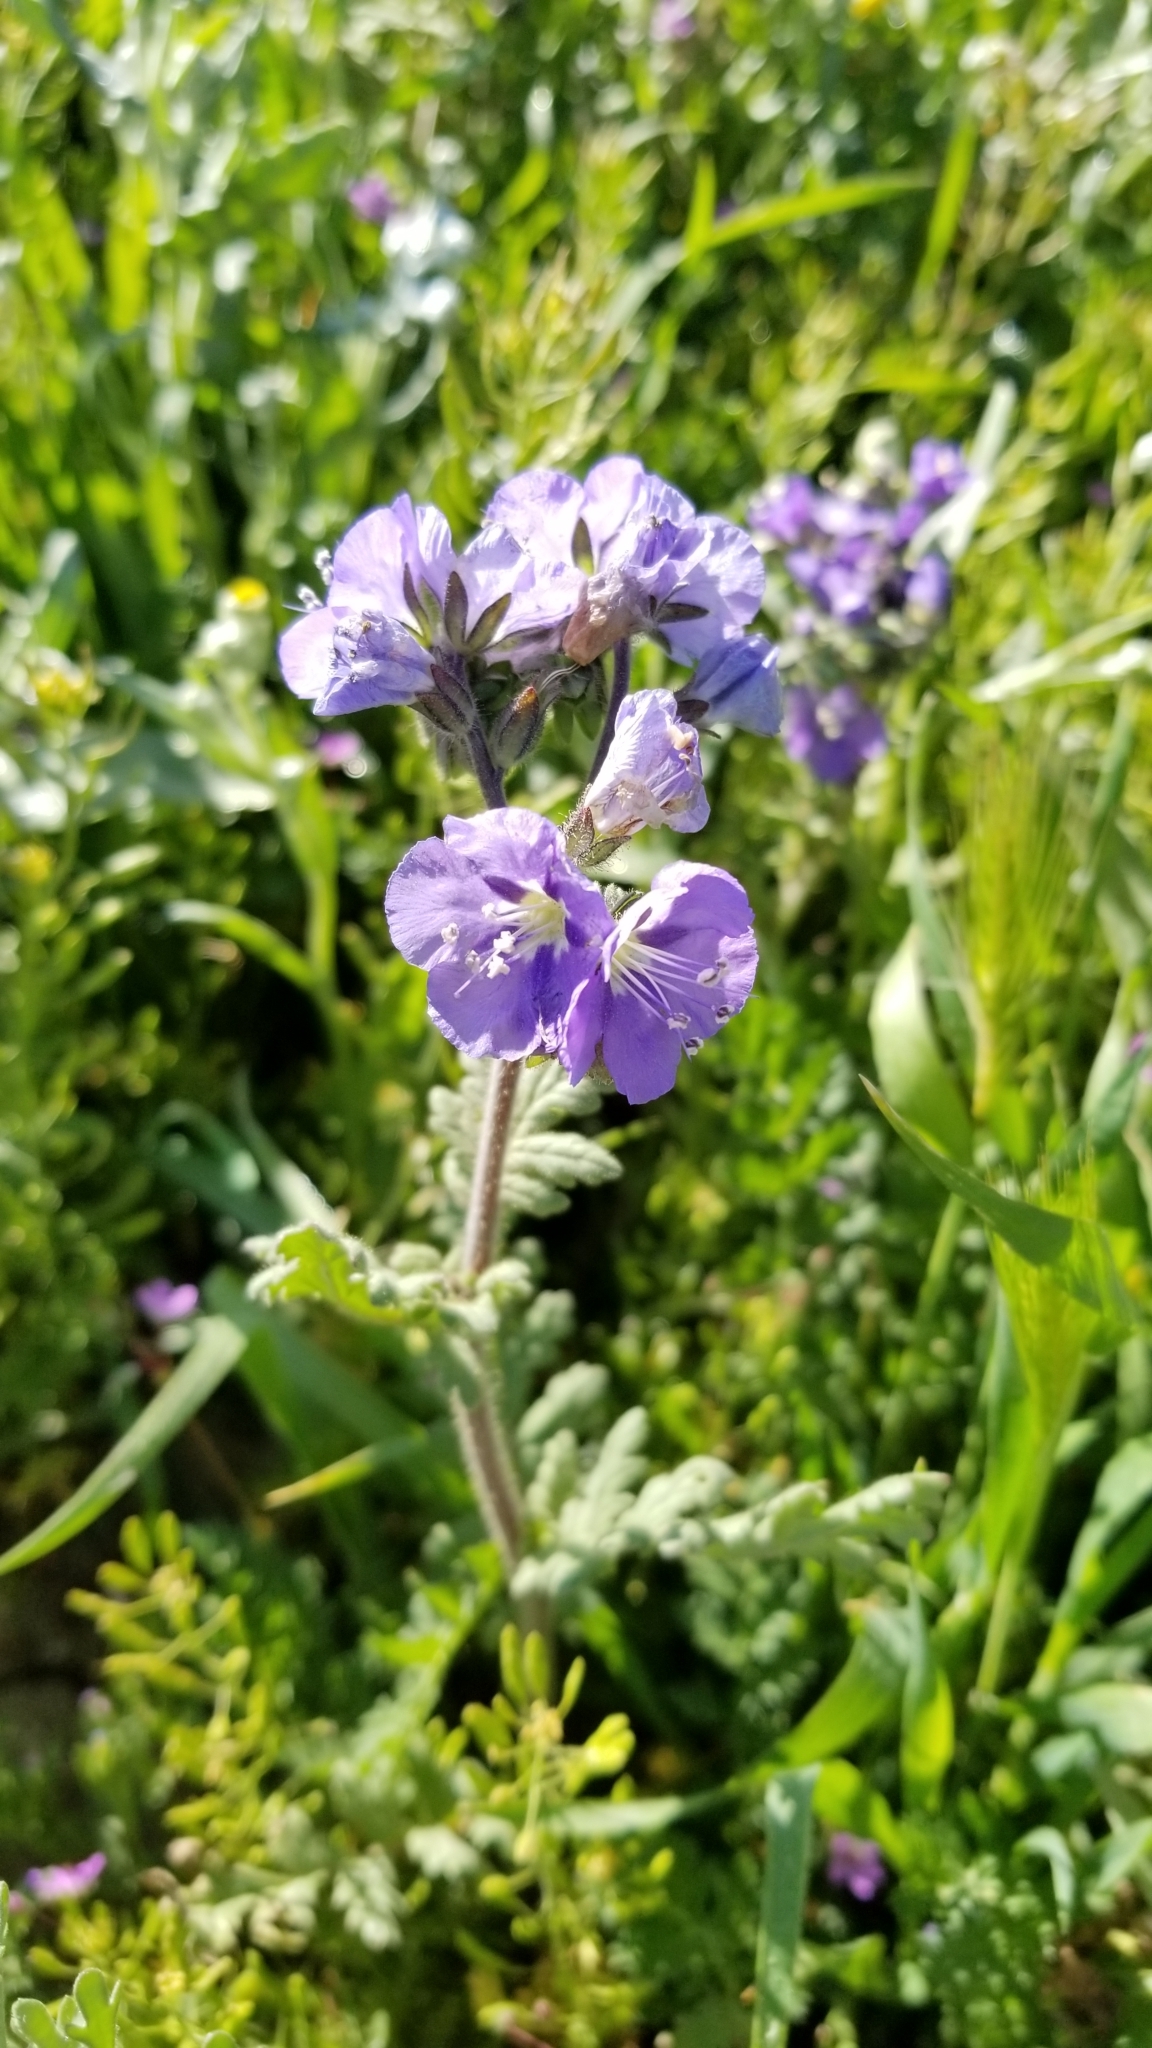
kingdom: Plantae
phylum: Tracheophyta
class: Magnoliopsida
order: Boraginales
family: Hydrophyllaceae
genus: Phacelia
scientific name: Phacelia ciliata
